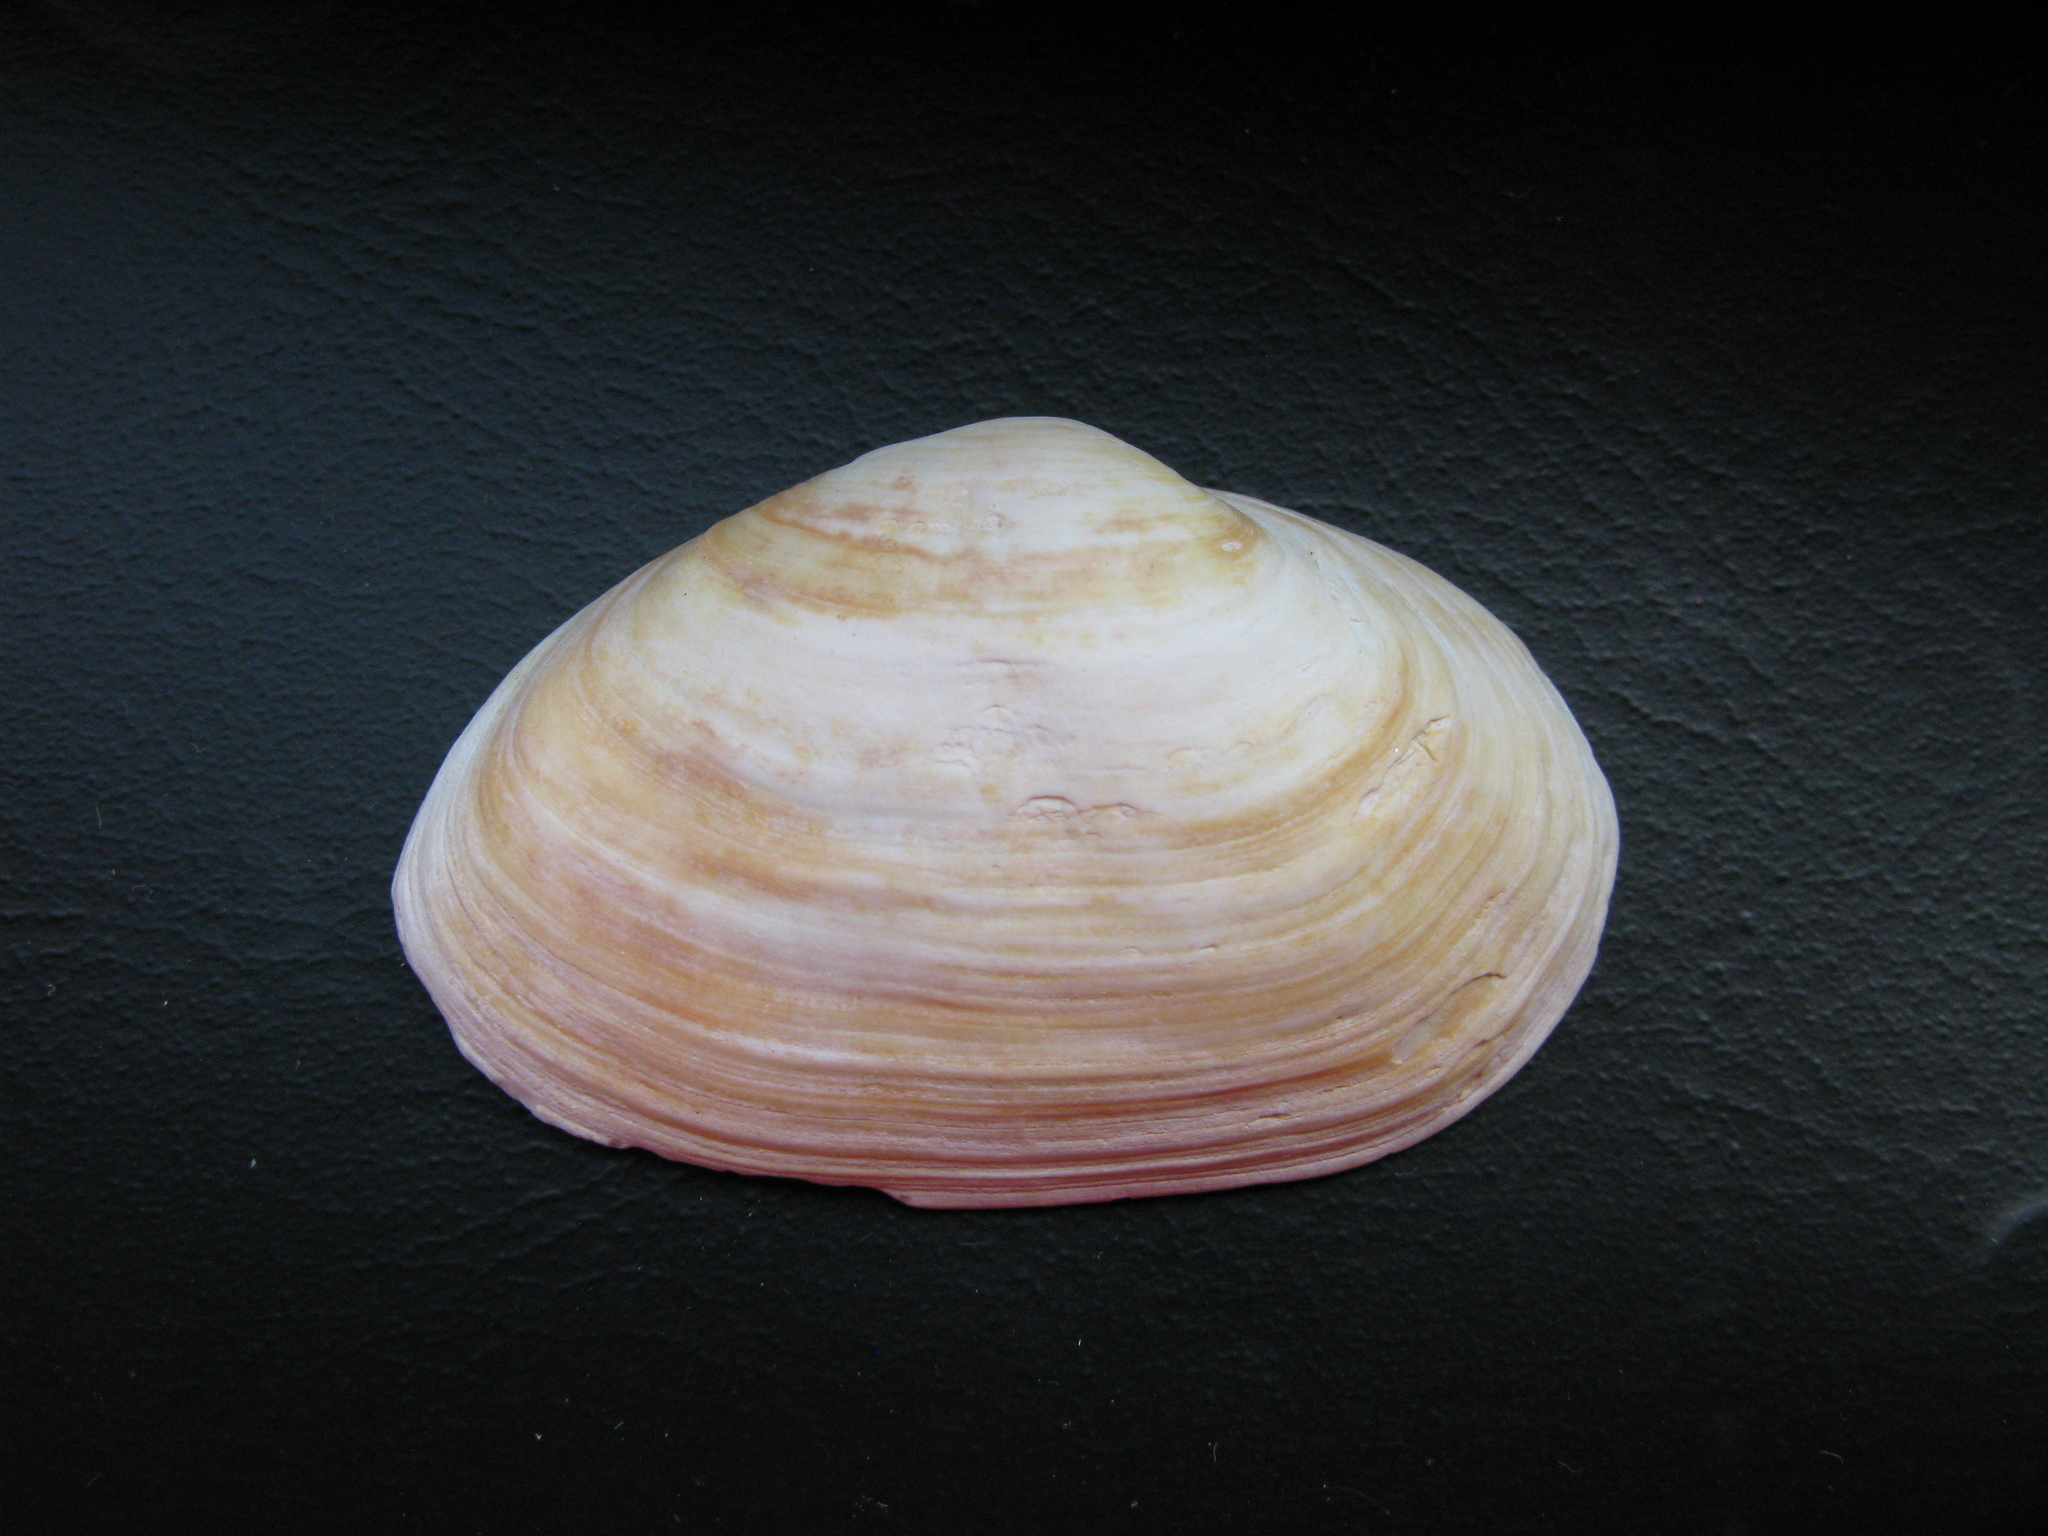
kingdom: Animalia
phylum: Mollusca
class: Bivalvia
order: Myida
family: Myidae
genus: Mya
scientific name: Mya arenaria
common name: Soft-shelled clam
